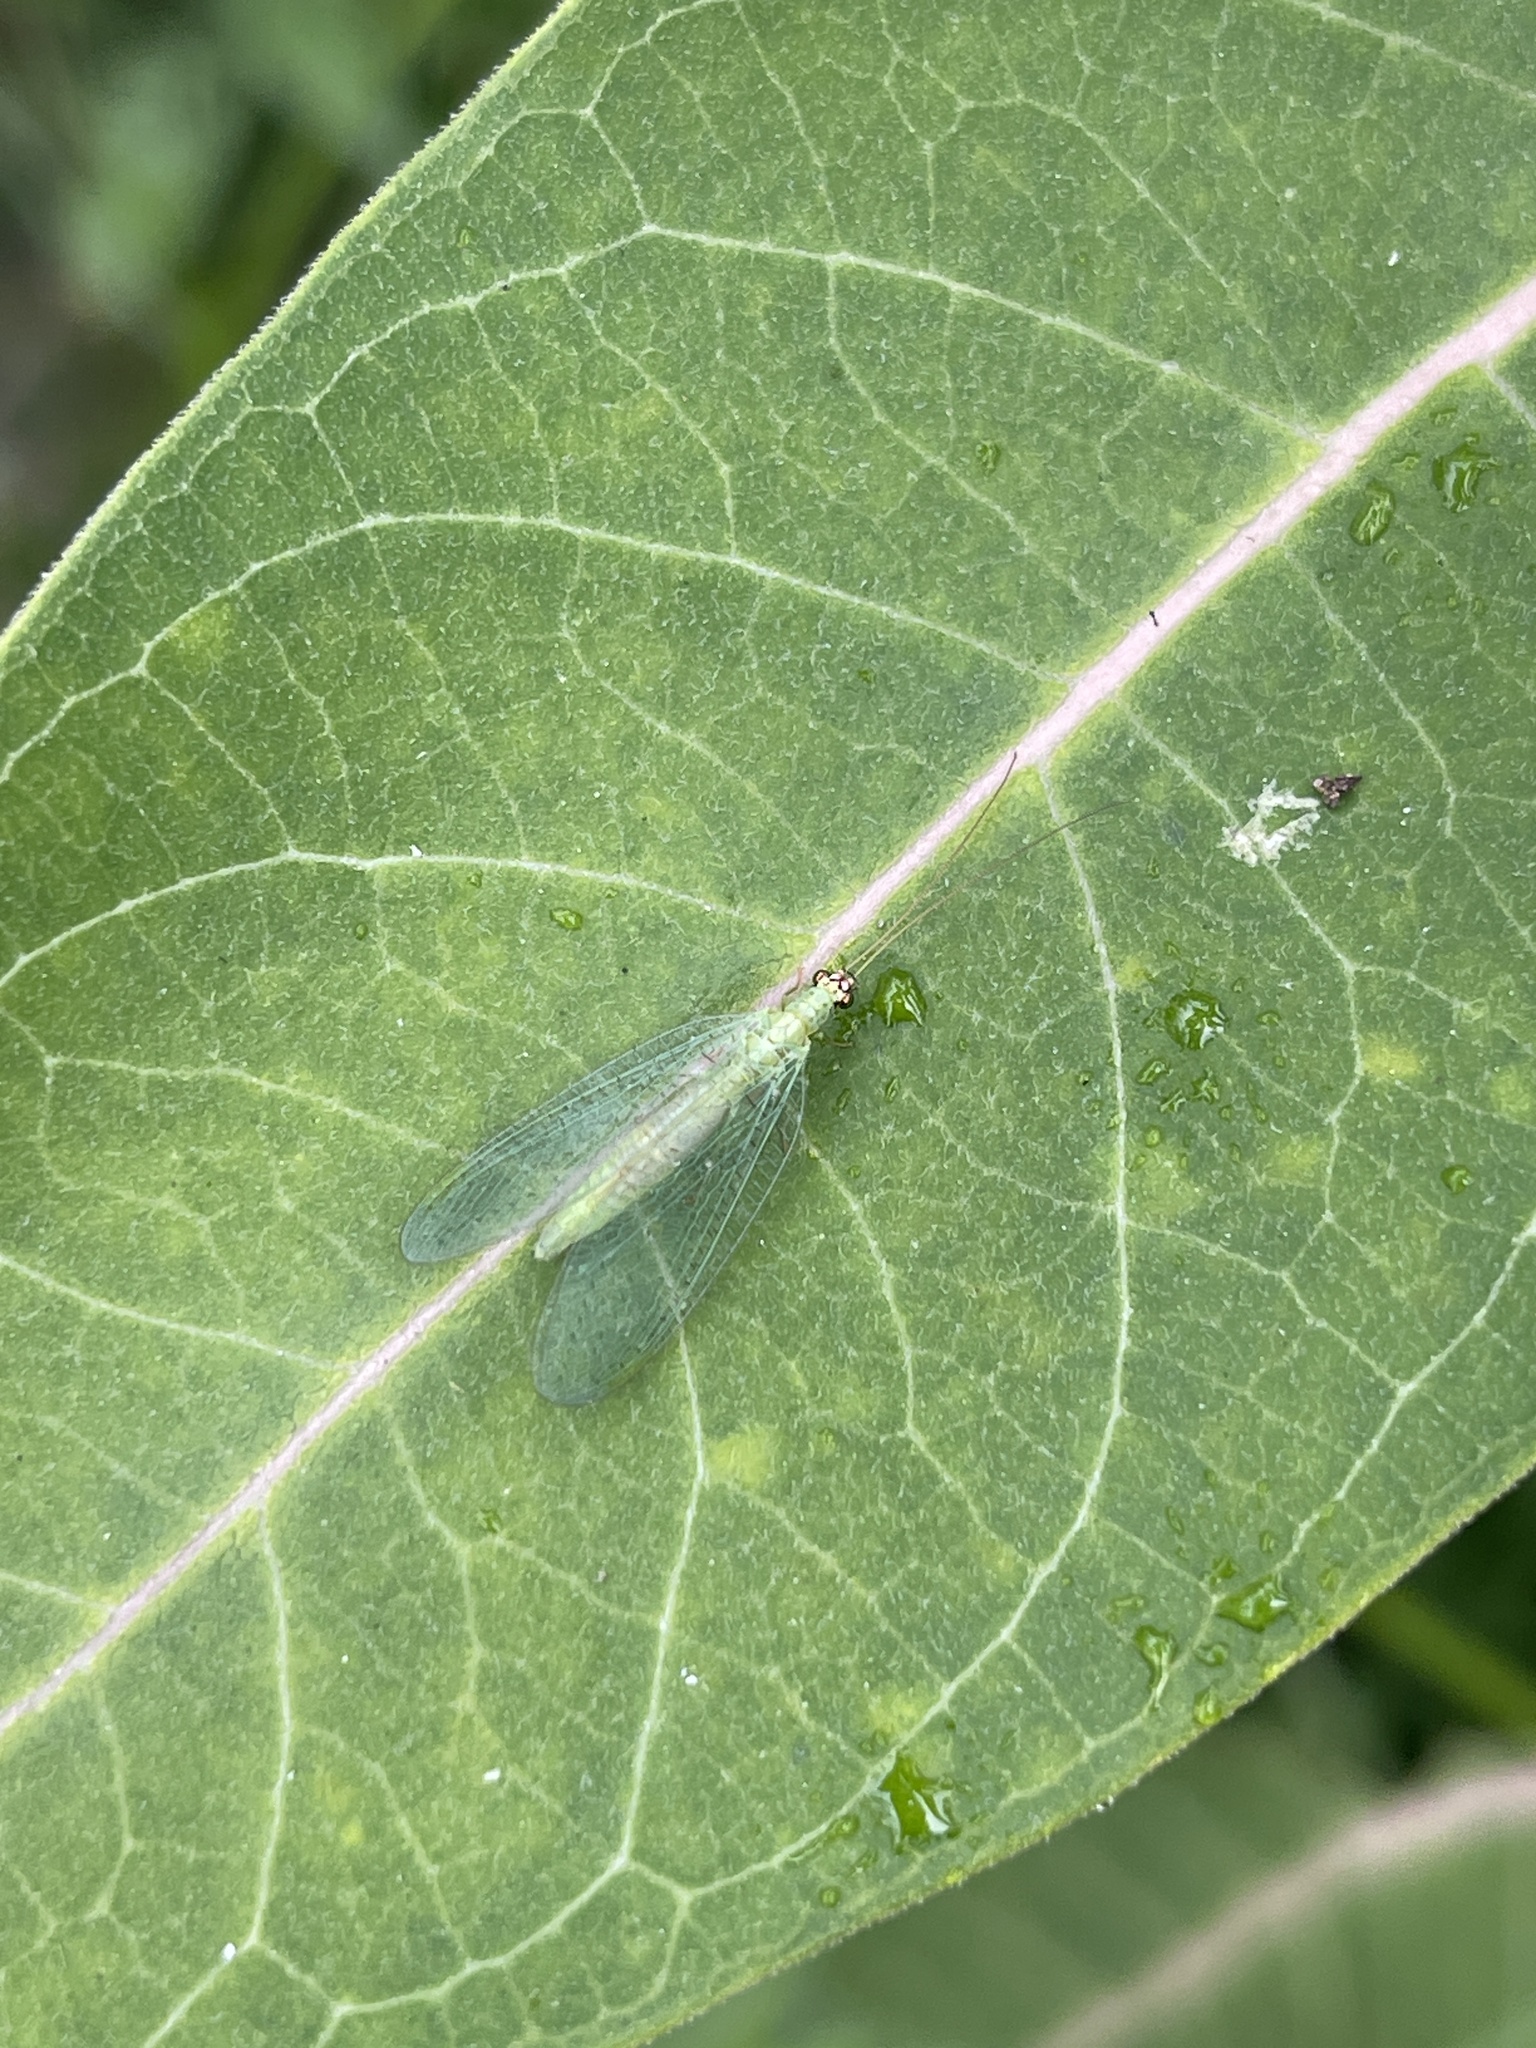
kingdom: Animalia
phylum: Arthropoda
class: Insecta
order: Neuroptera
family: Chrysopidae
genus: Chrysopa
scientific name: Chrysopa oculata
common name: Golden-eyed lacewing
